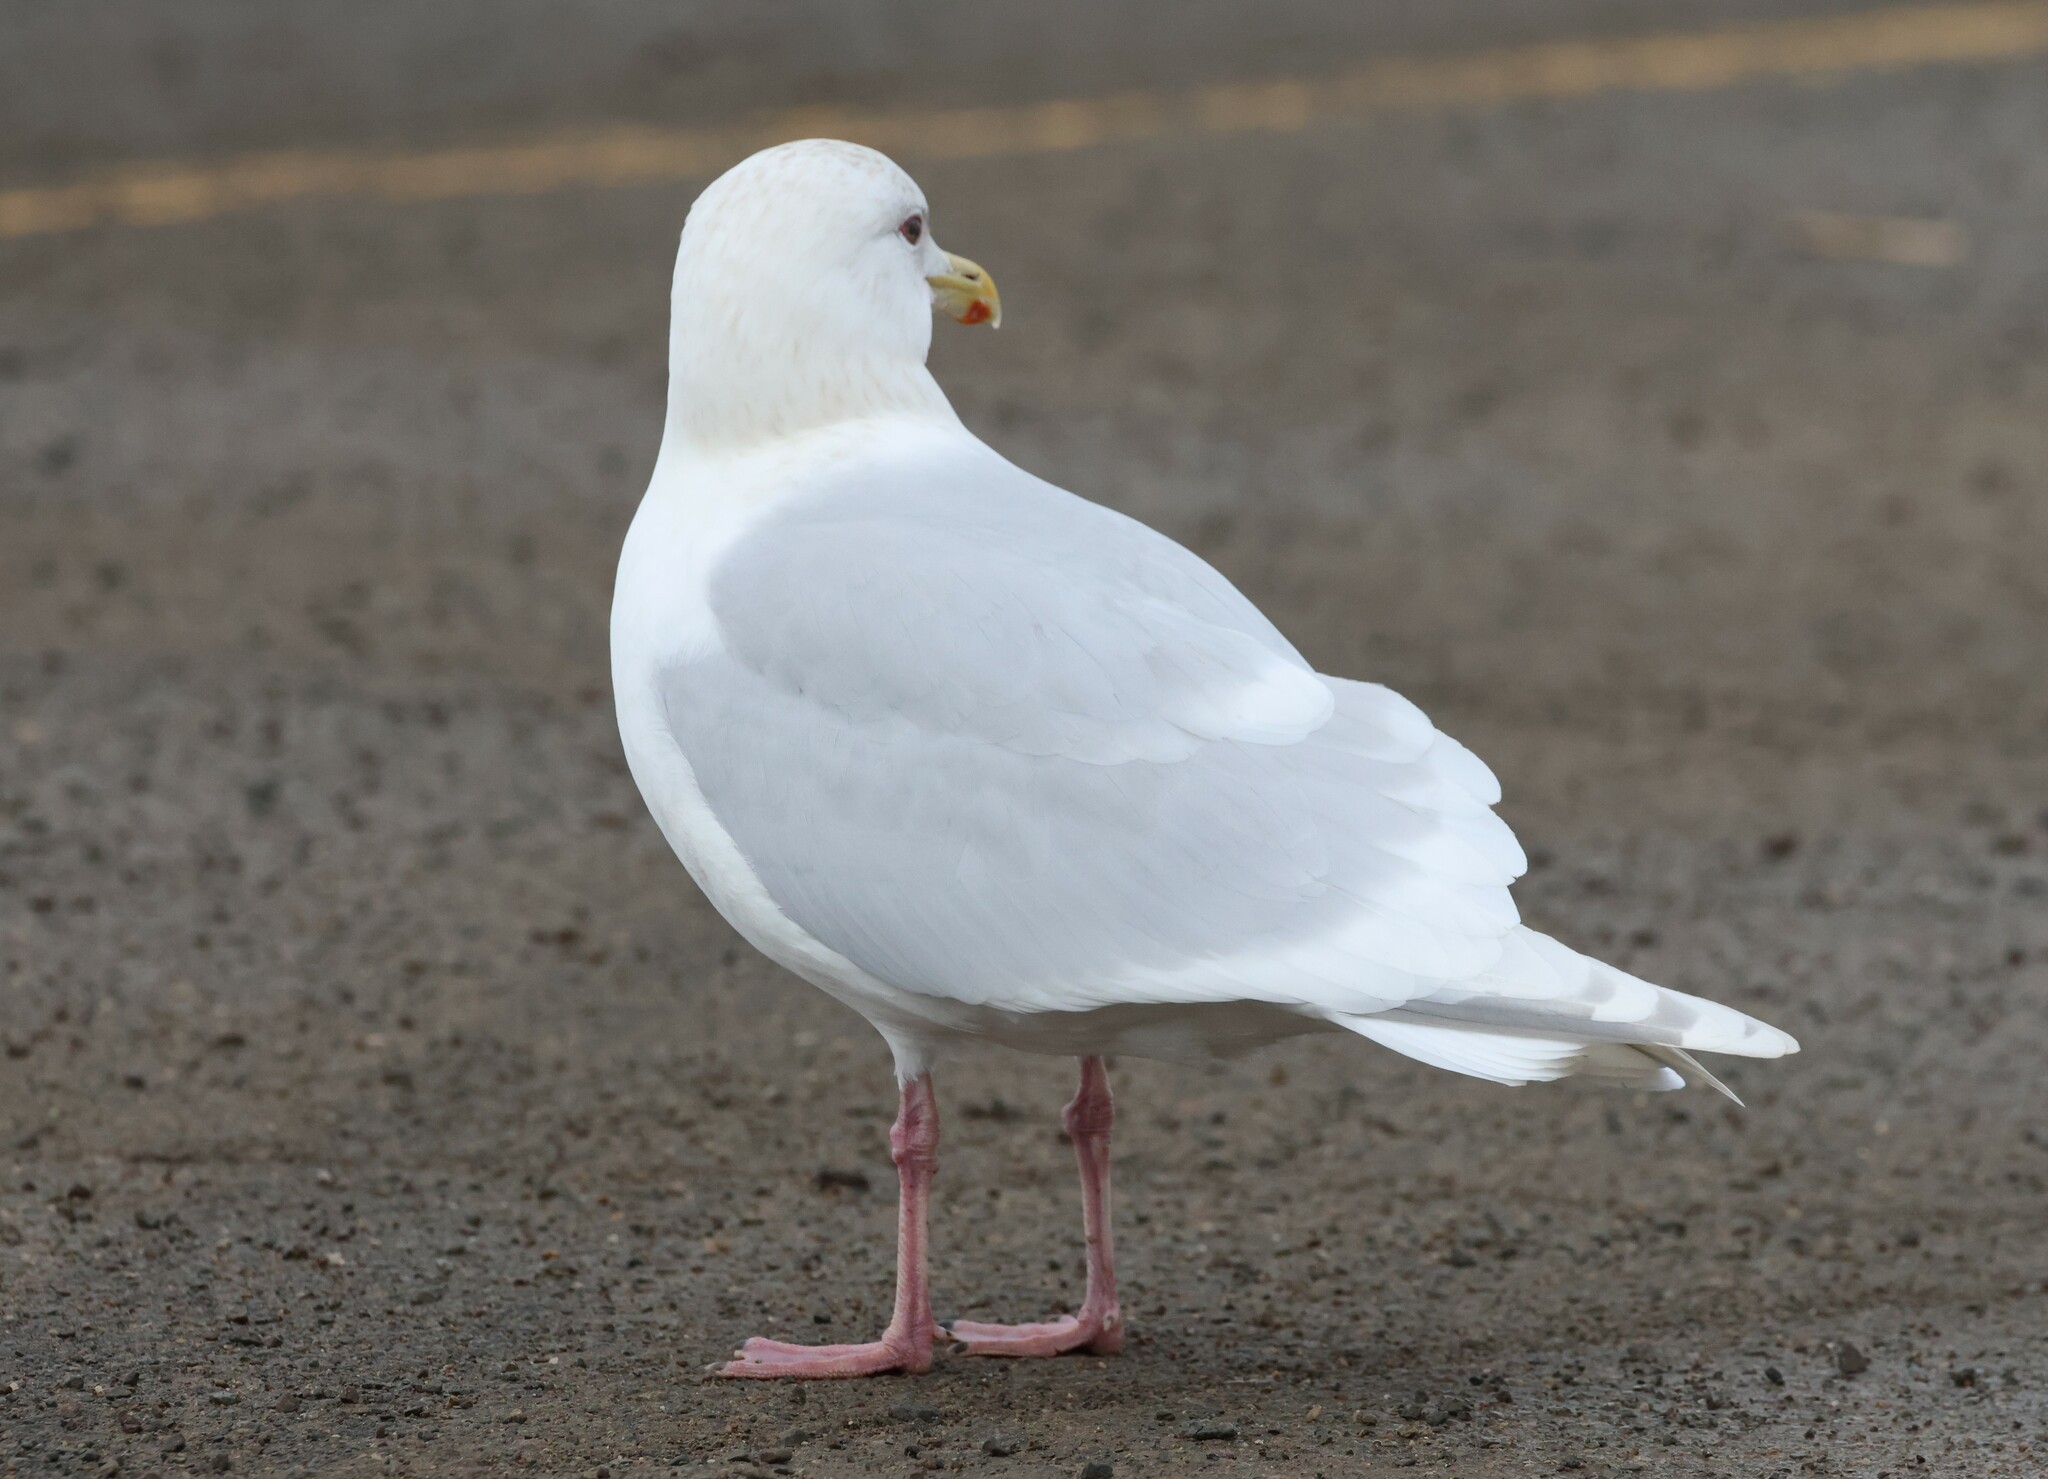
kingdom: Animalia
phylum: Chordata
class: Aves
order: Charadriiformes
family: Laridae
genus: Larus
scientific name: Larus glaucoides
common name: Iceland gull
